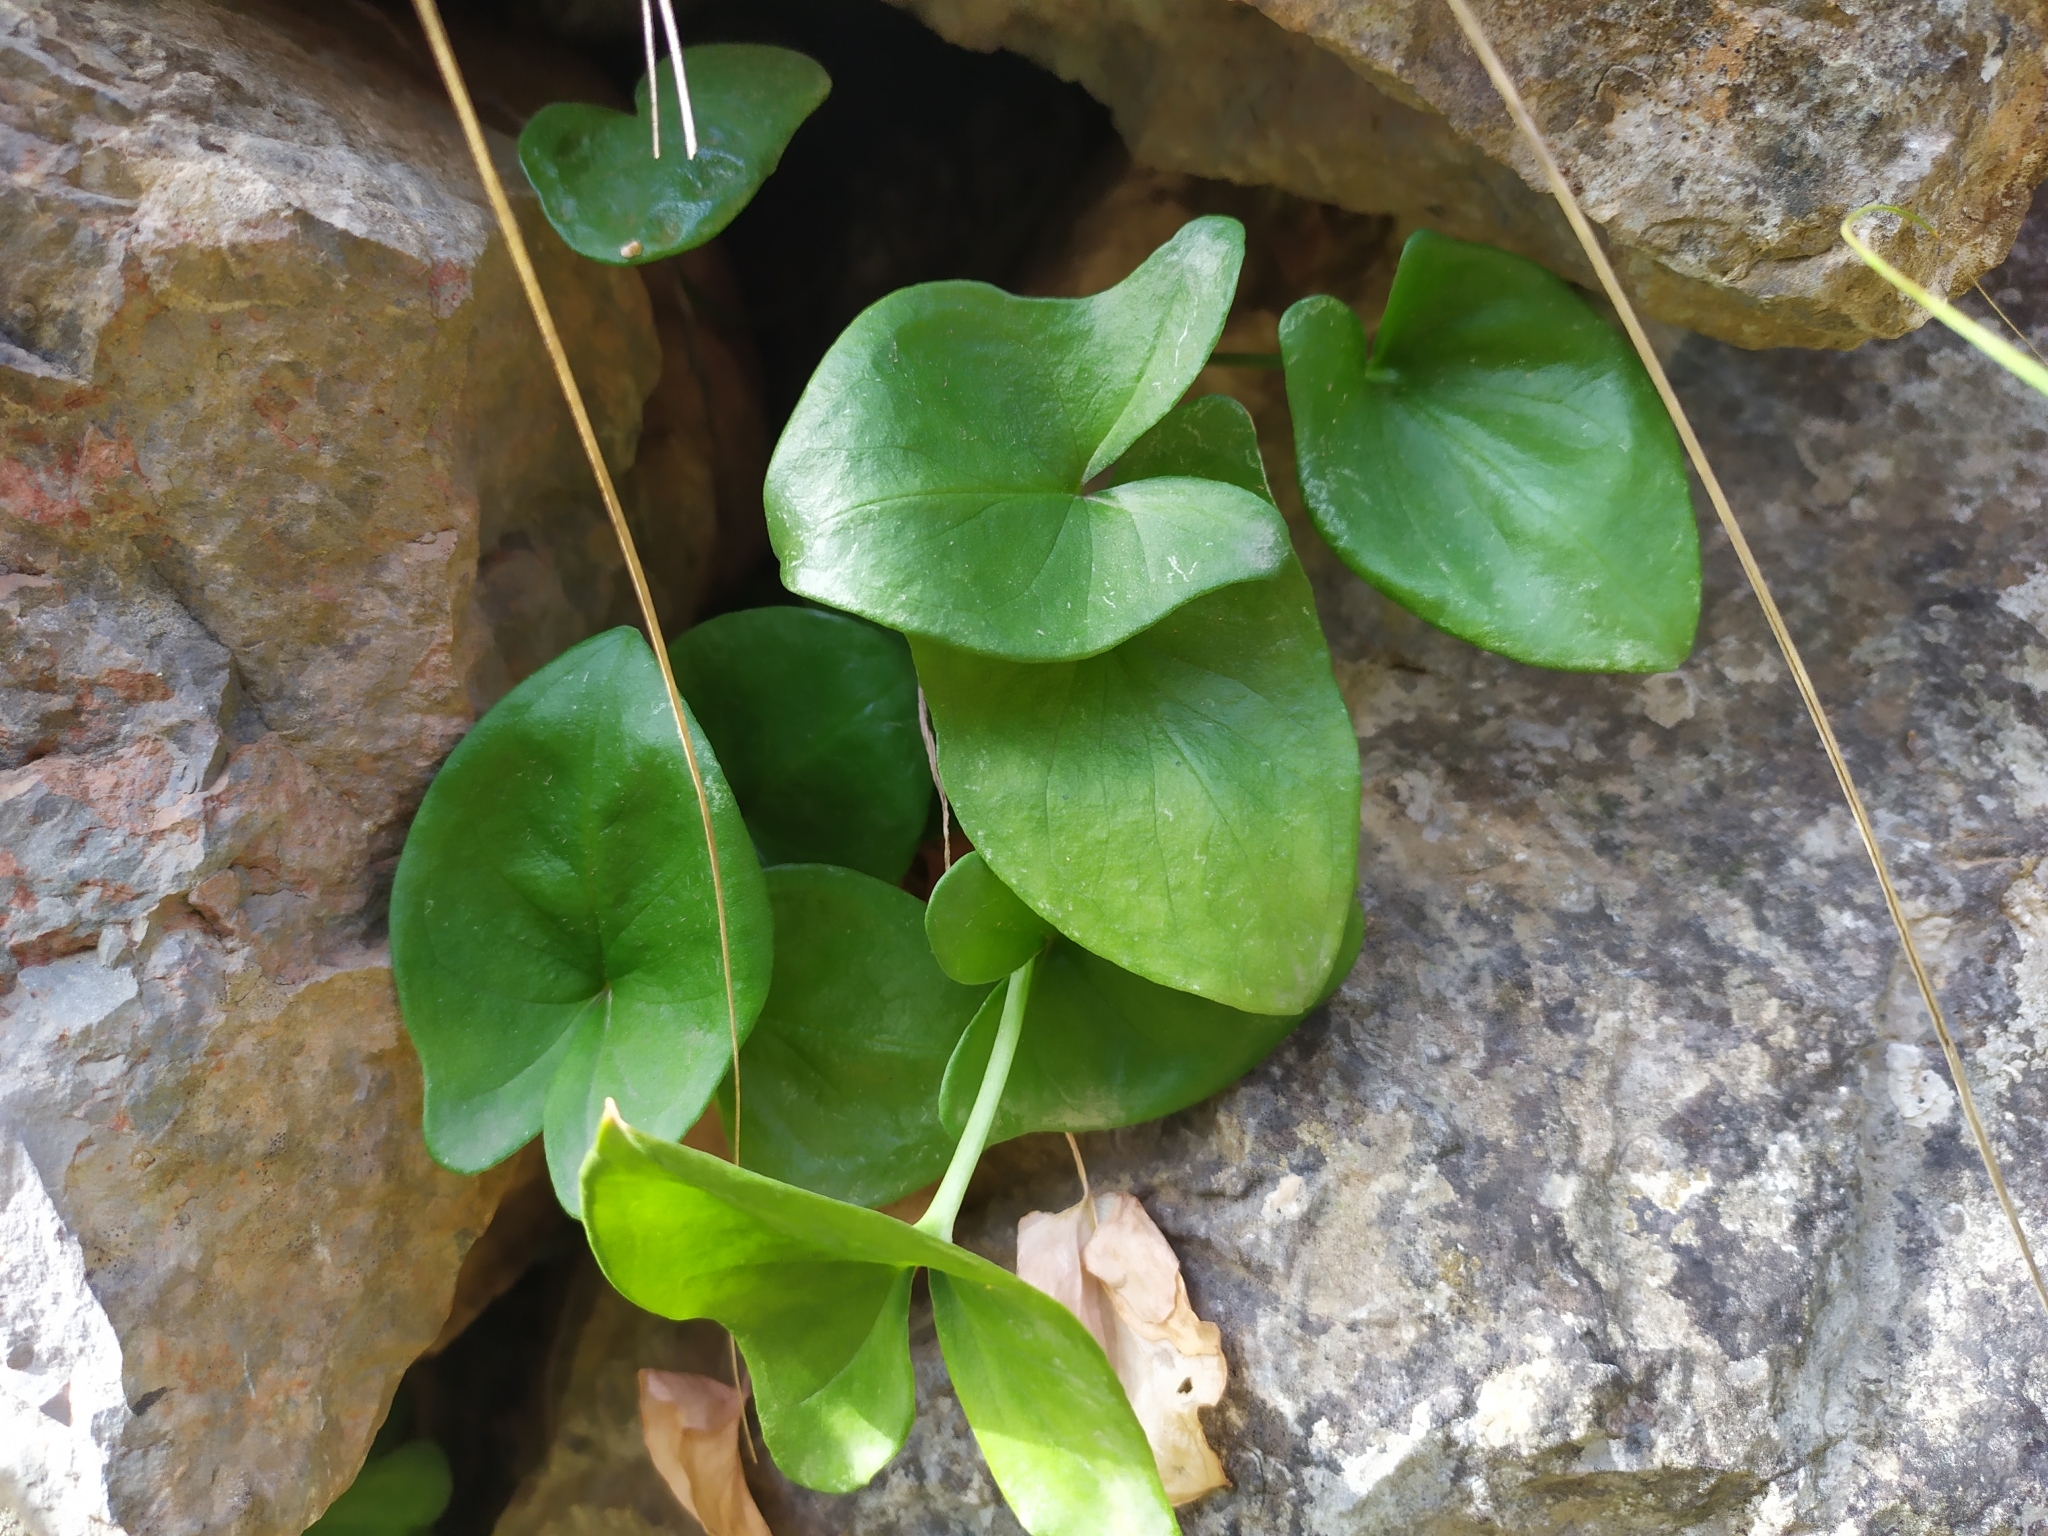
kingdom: Plantae
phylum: Tracheophyta
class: Liliopsida
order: Alismatales
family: Araceae
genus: Arisarum
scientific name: Arisarum vulgare
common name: Common arisarum
